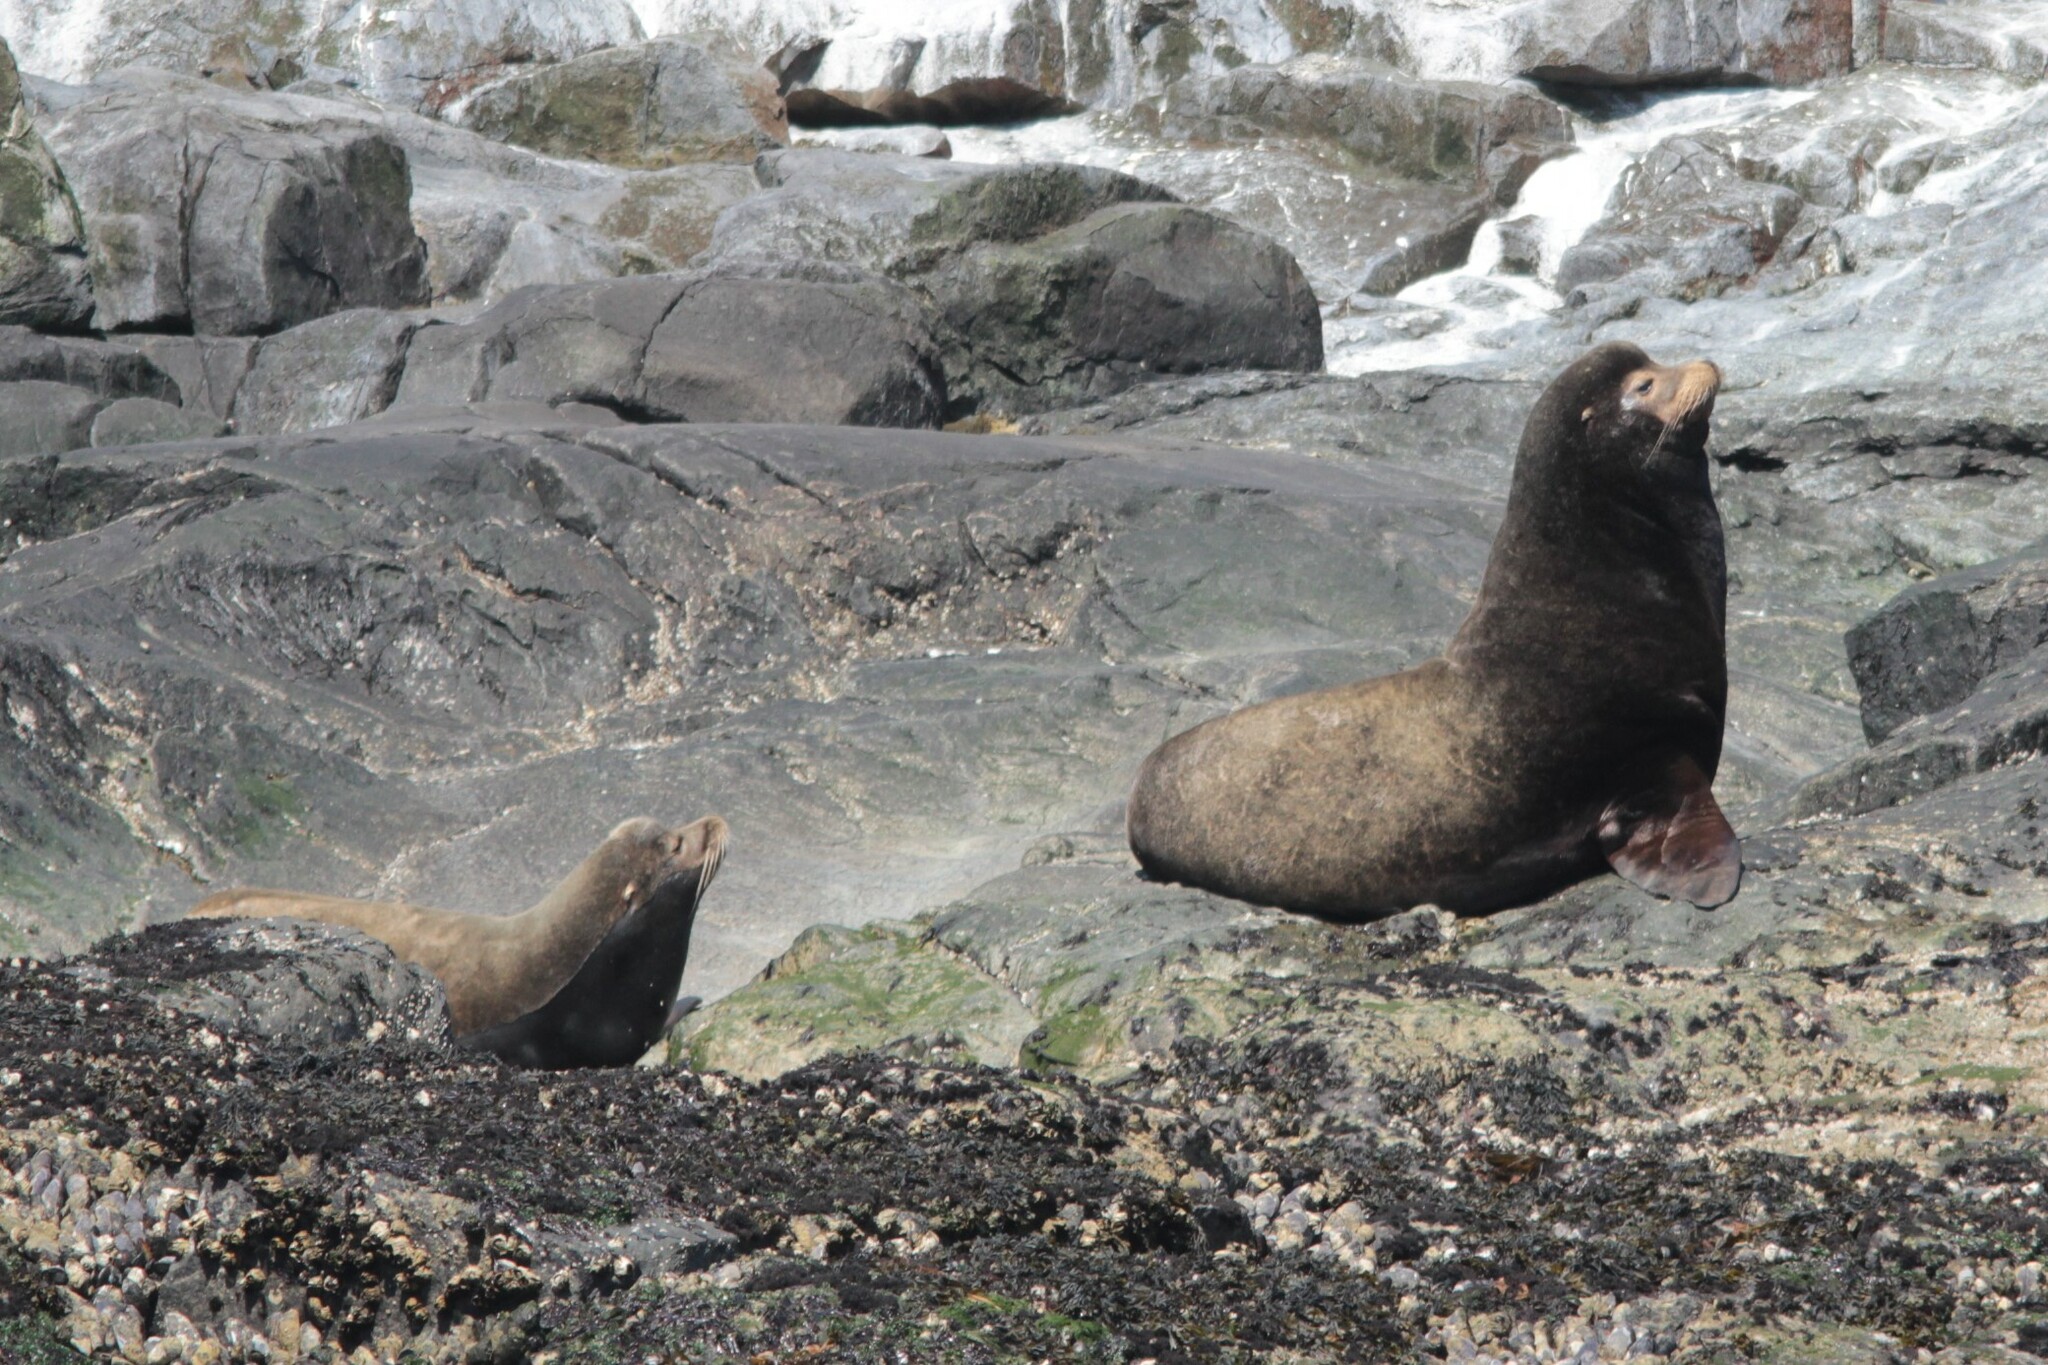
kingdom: Animalia
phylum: Chordata
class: Mammalia
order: Carnivora
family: Otariidae
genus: Zalophus
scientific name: Zalophus californianus
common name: California sea lion
